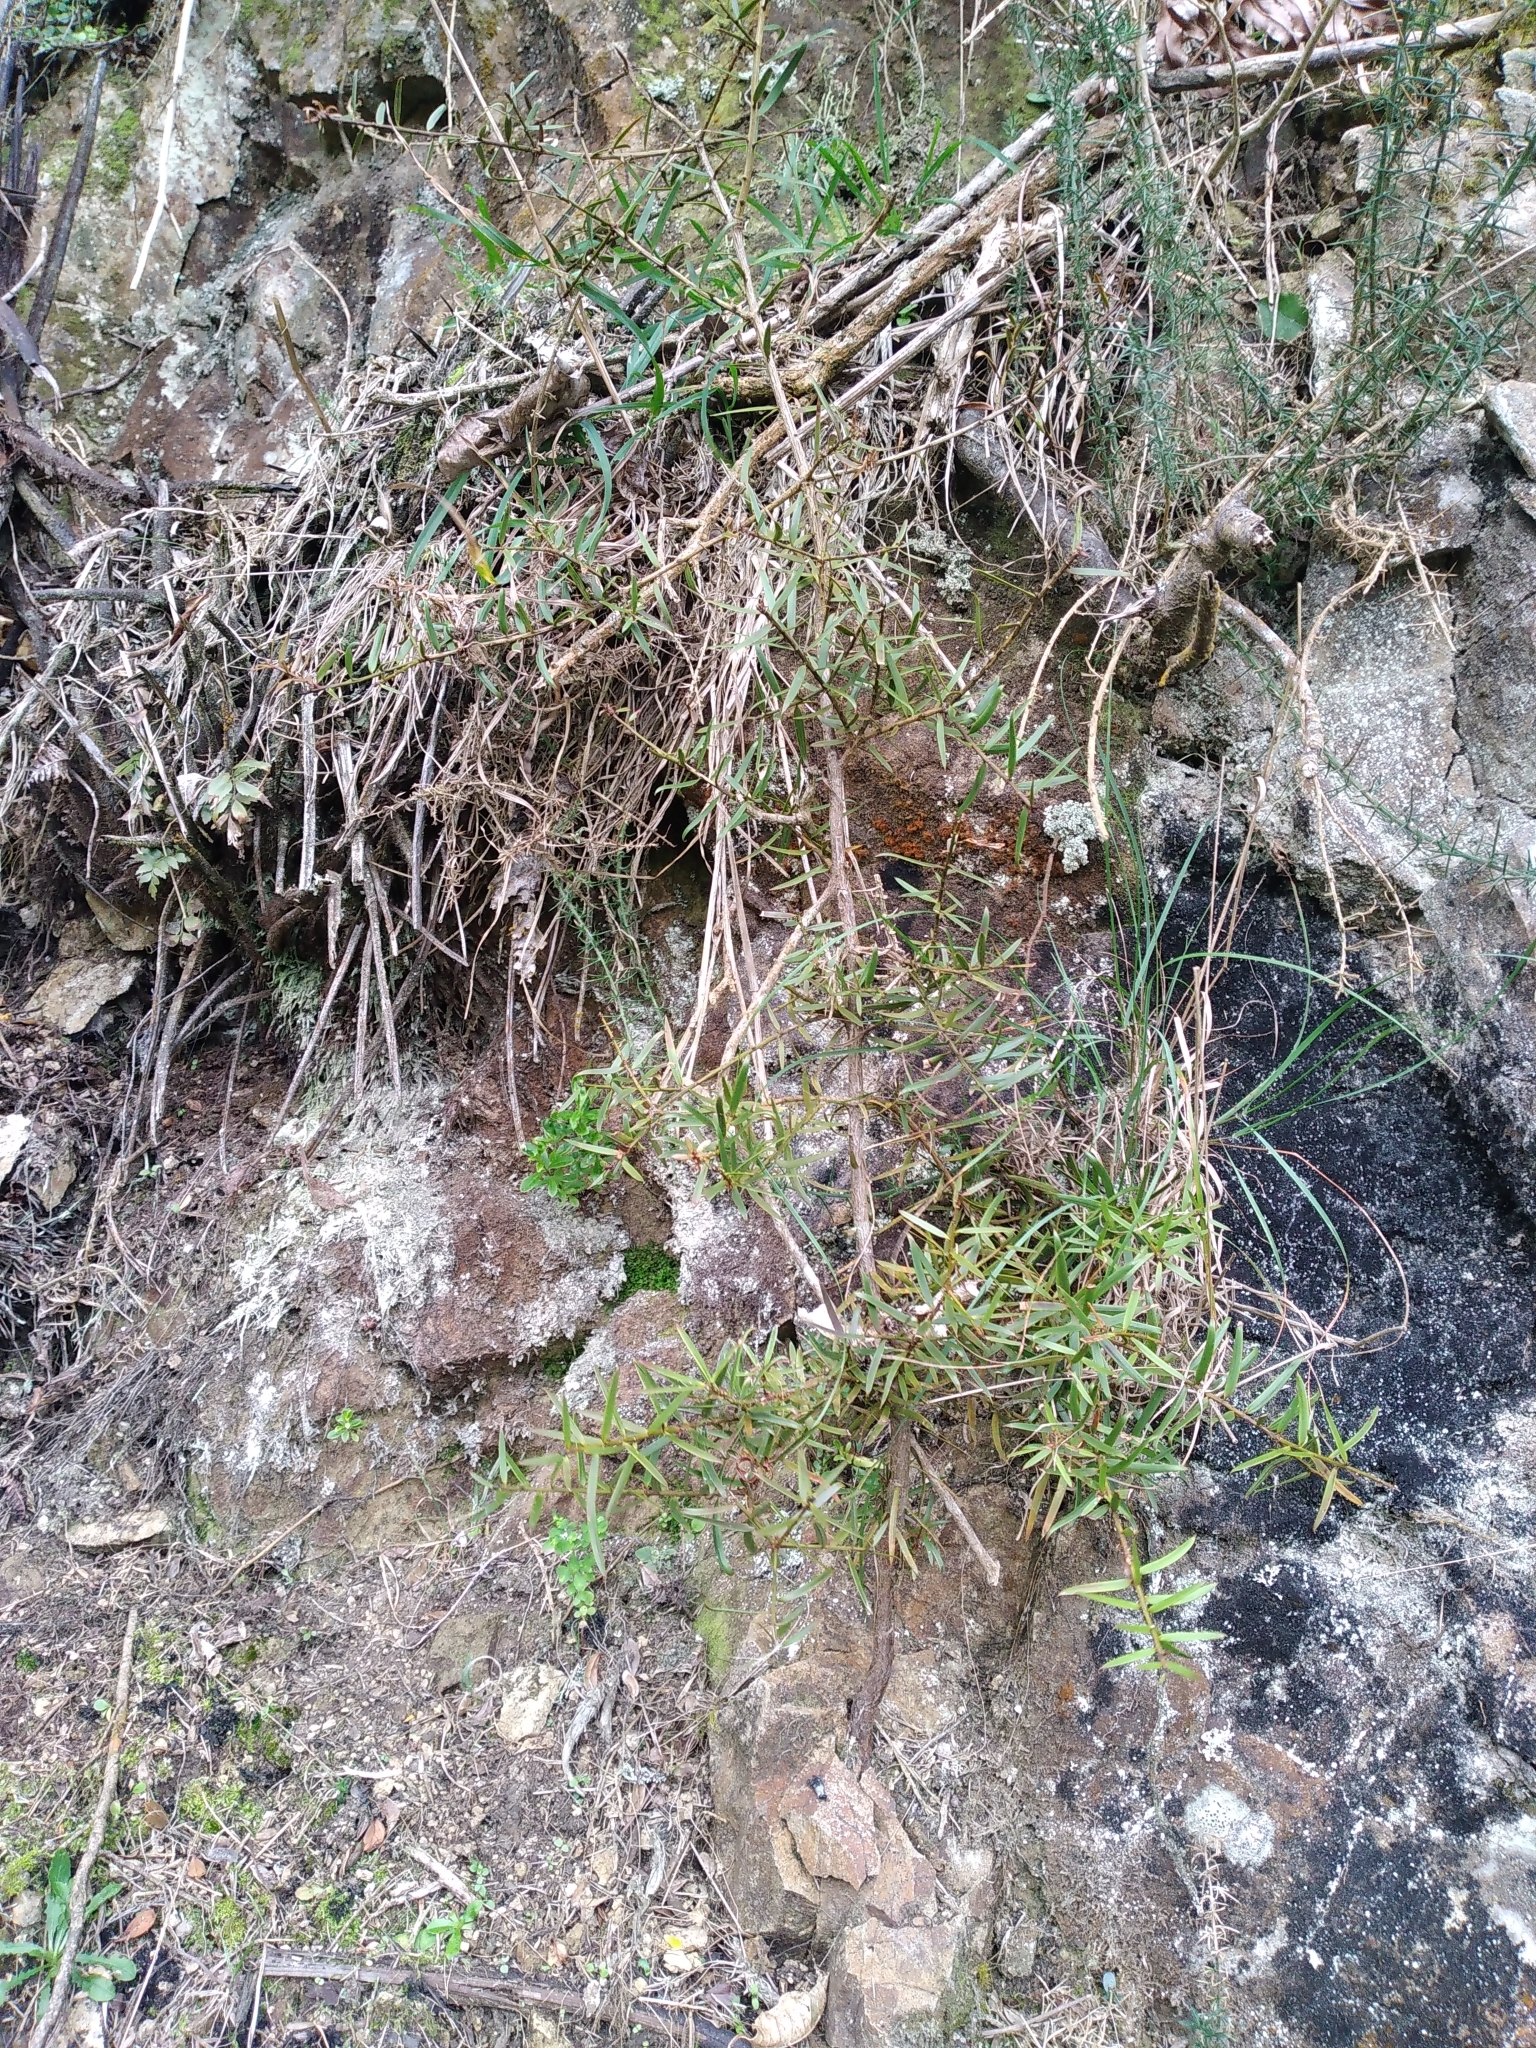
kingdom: Plantae
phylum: Tracheophyta
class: Pinopsida
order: Pinales
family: Podocarpaceae
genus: Podocarpus
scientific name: Podocarpus totara
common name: Totara
